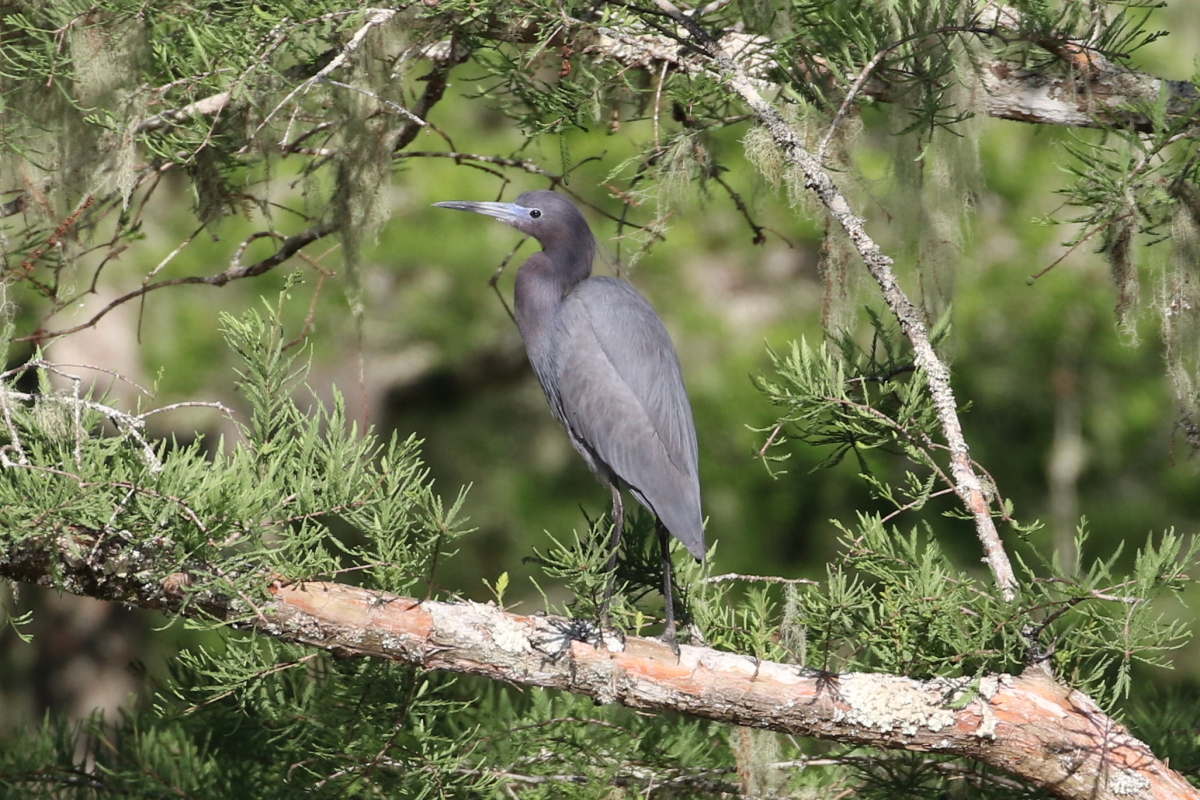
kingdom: Animalia
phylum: Chordata
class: Aves
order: Pelecaniformes
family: Ardeidae
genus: Egretta
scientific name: Egretta caerulea
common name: Little blue heron
